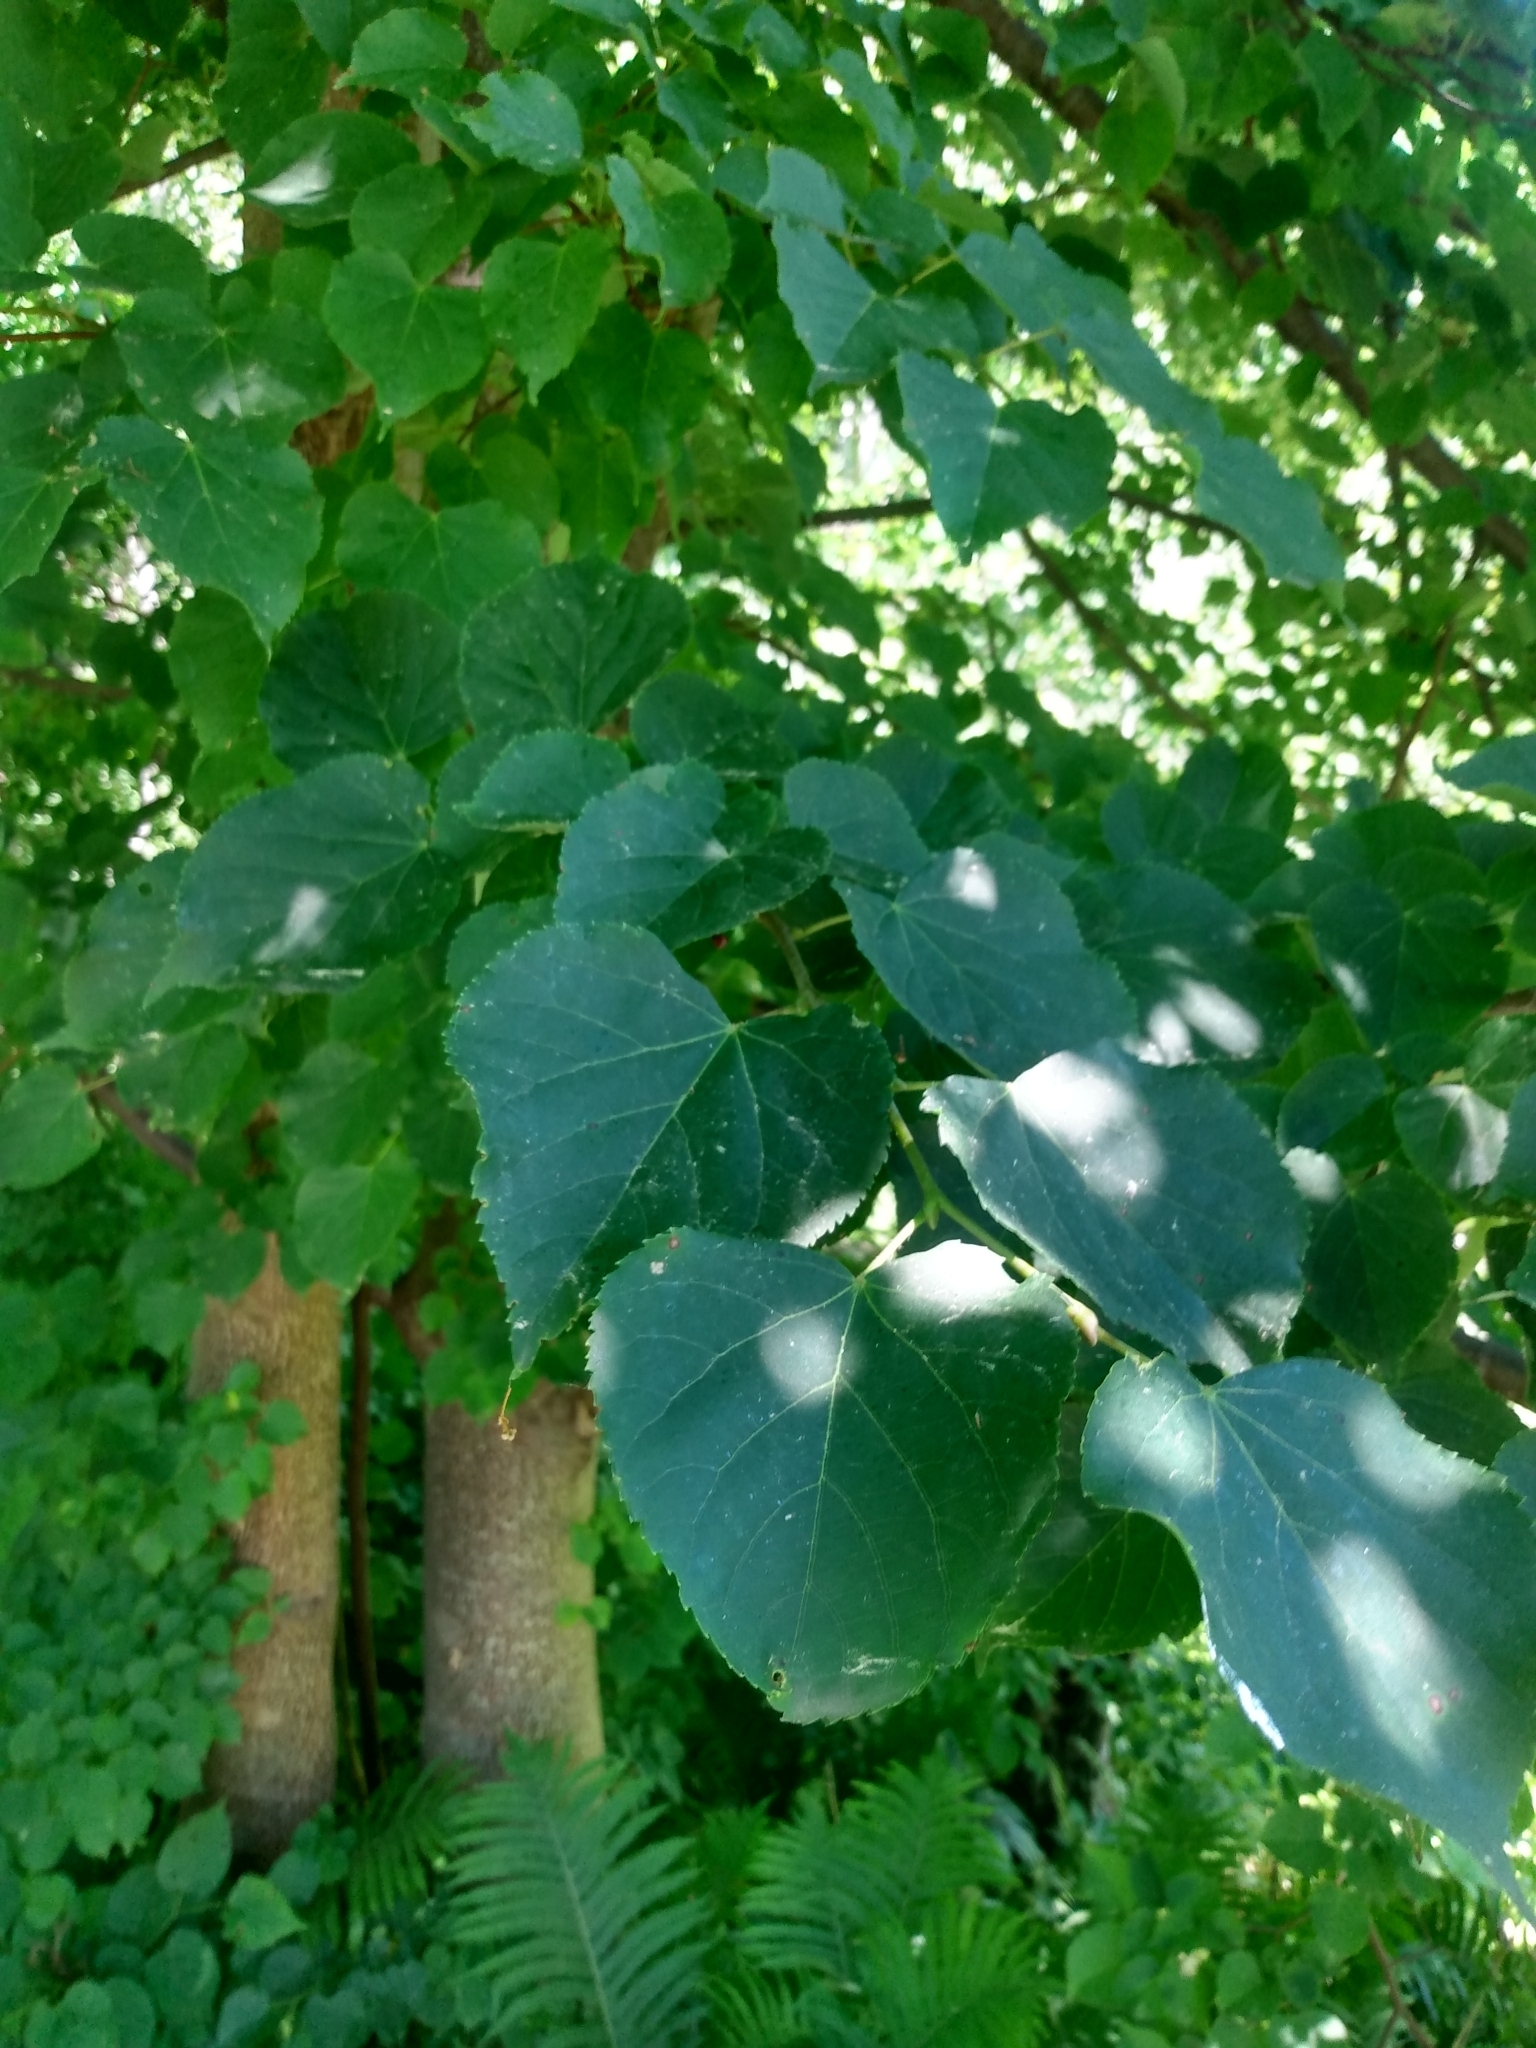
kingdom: Plantae
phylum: Tracheophyta
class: Magnoliopsida
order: Malvales
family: Malvaceae
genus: Tilia
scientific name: Tilia cordata
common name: Small-leaved lime
